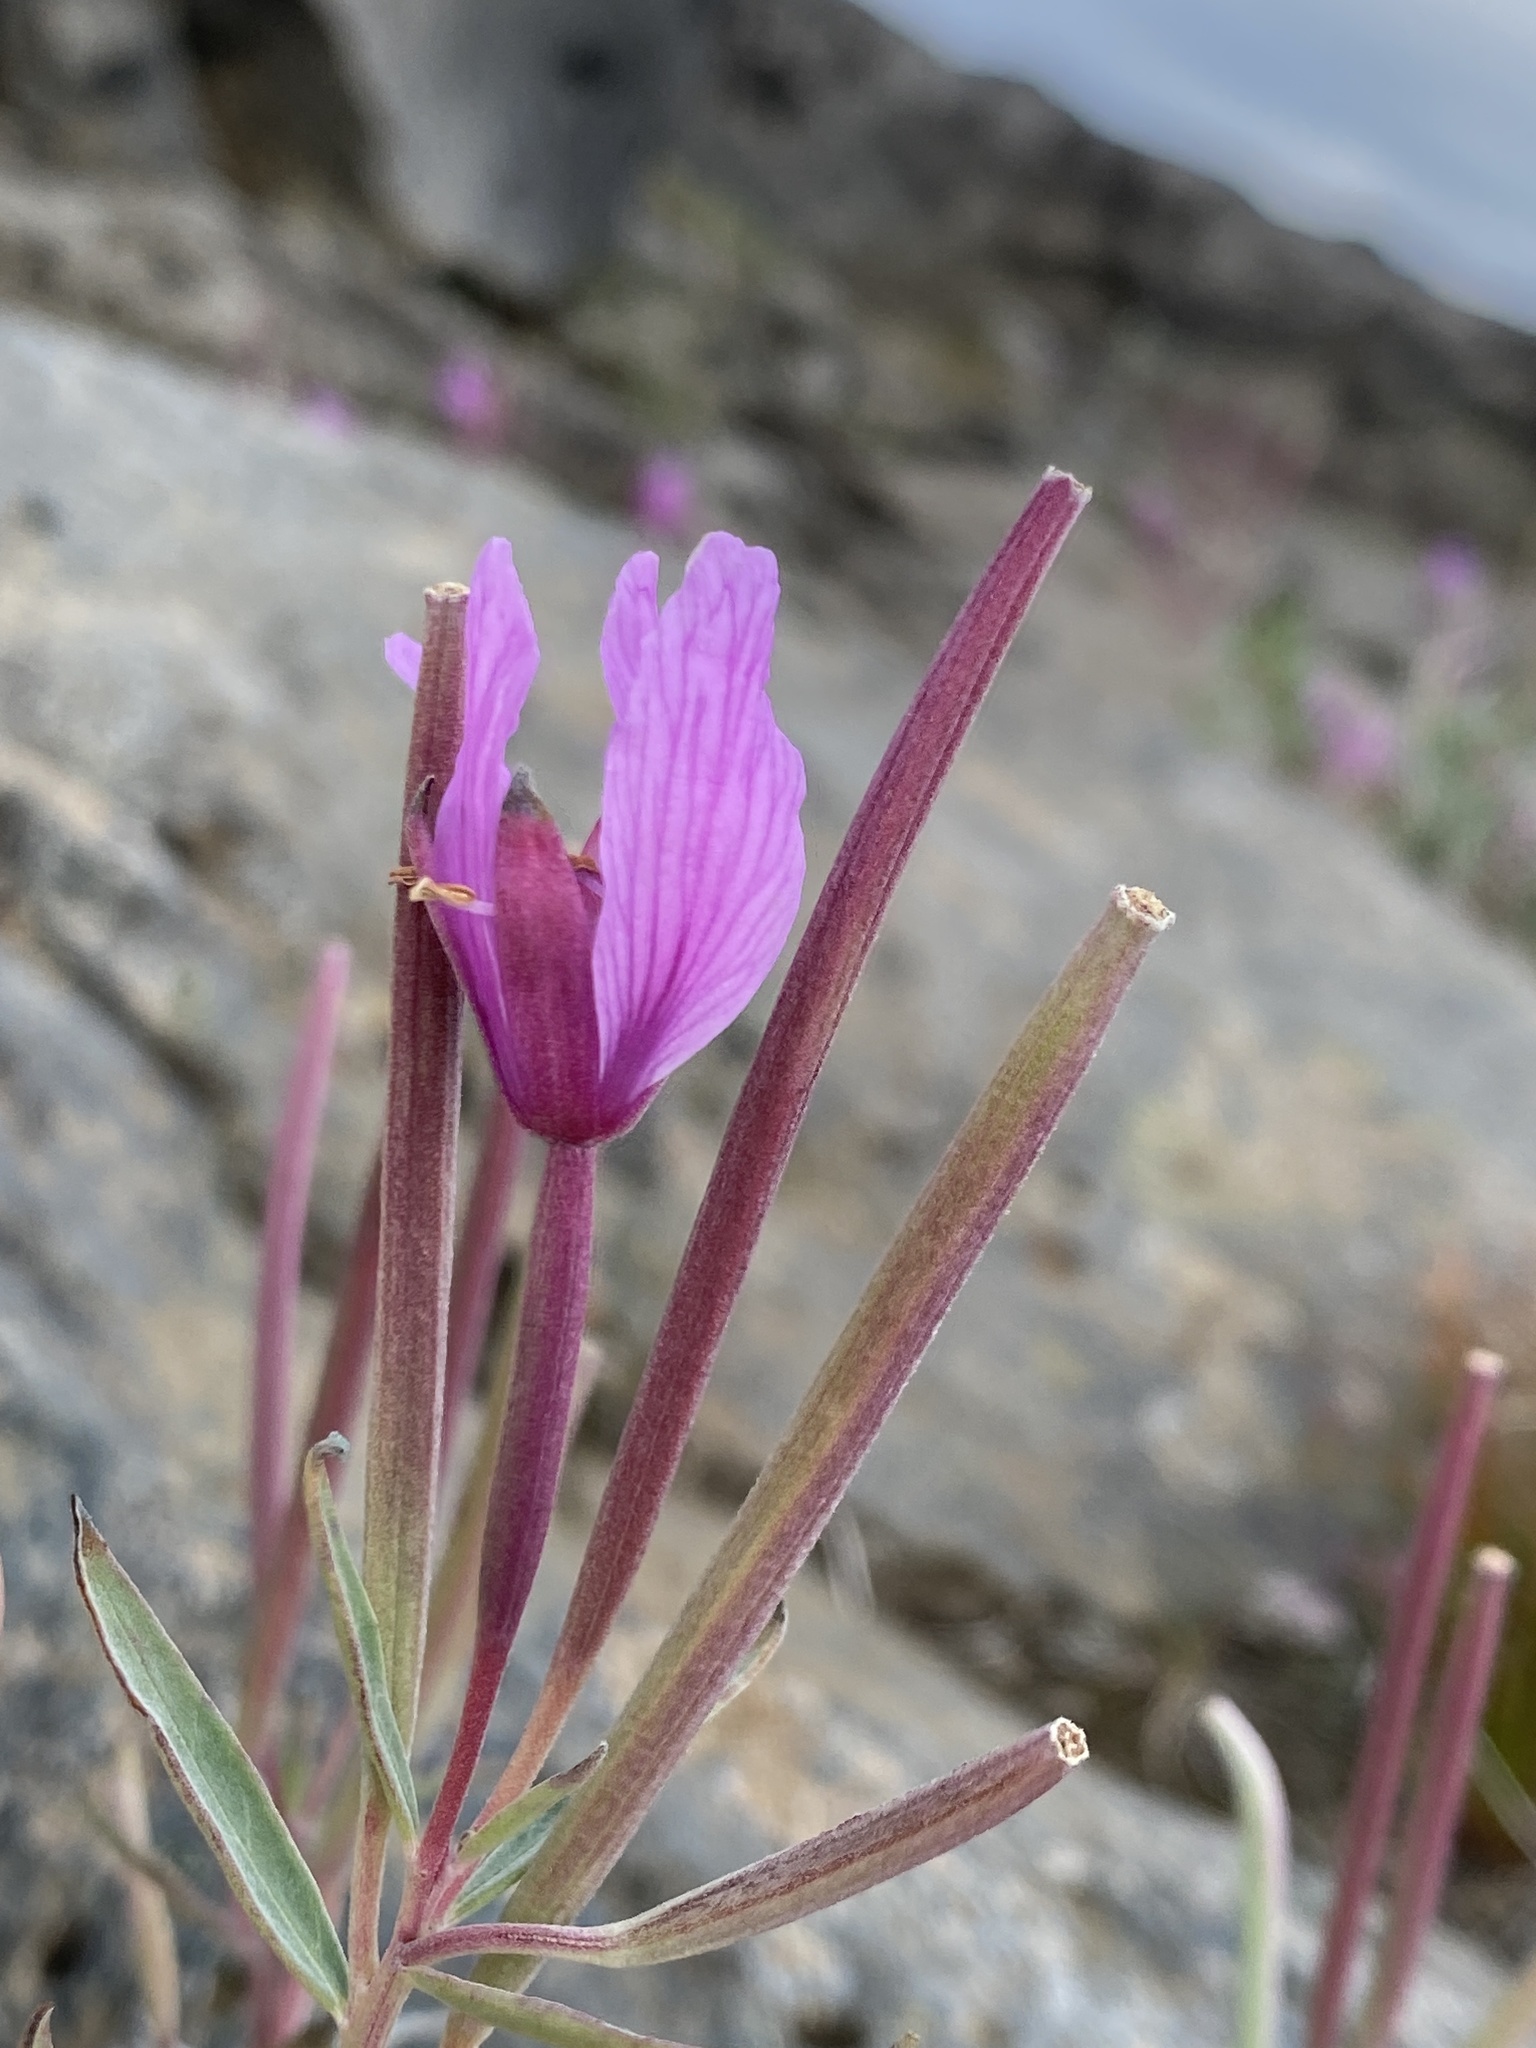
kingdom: Plantae
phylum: Tracheophyta
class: Magnoliopsida
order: Myrtales
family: Onagraceae
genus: Chamaenerion
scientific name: Chamaenerion latifolium
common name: Dwarf fireweed
